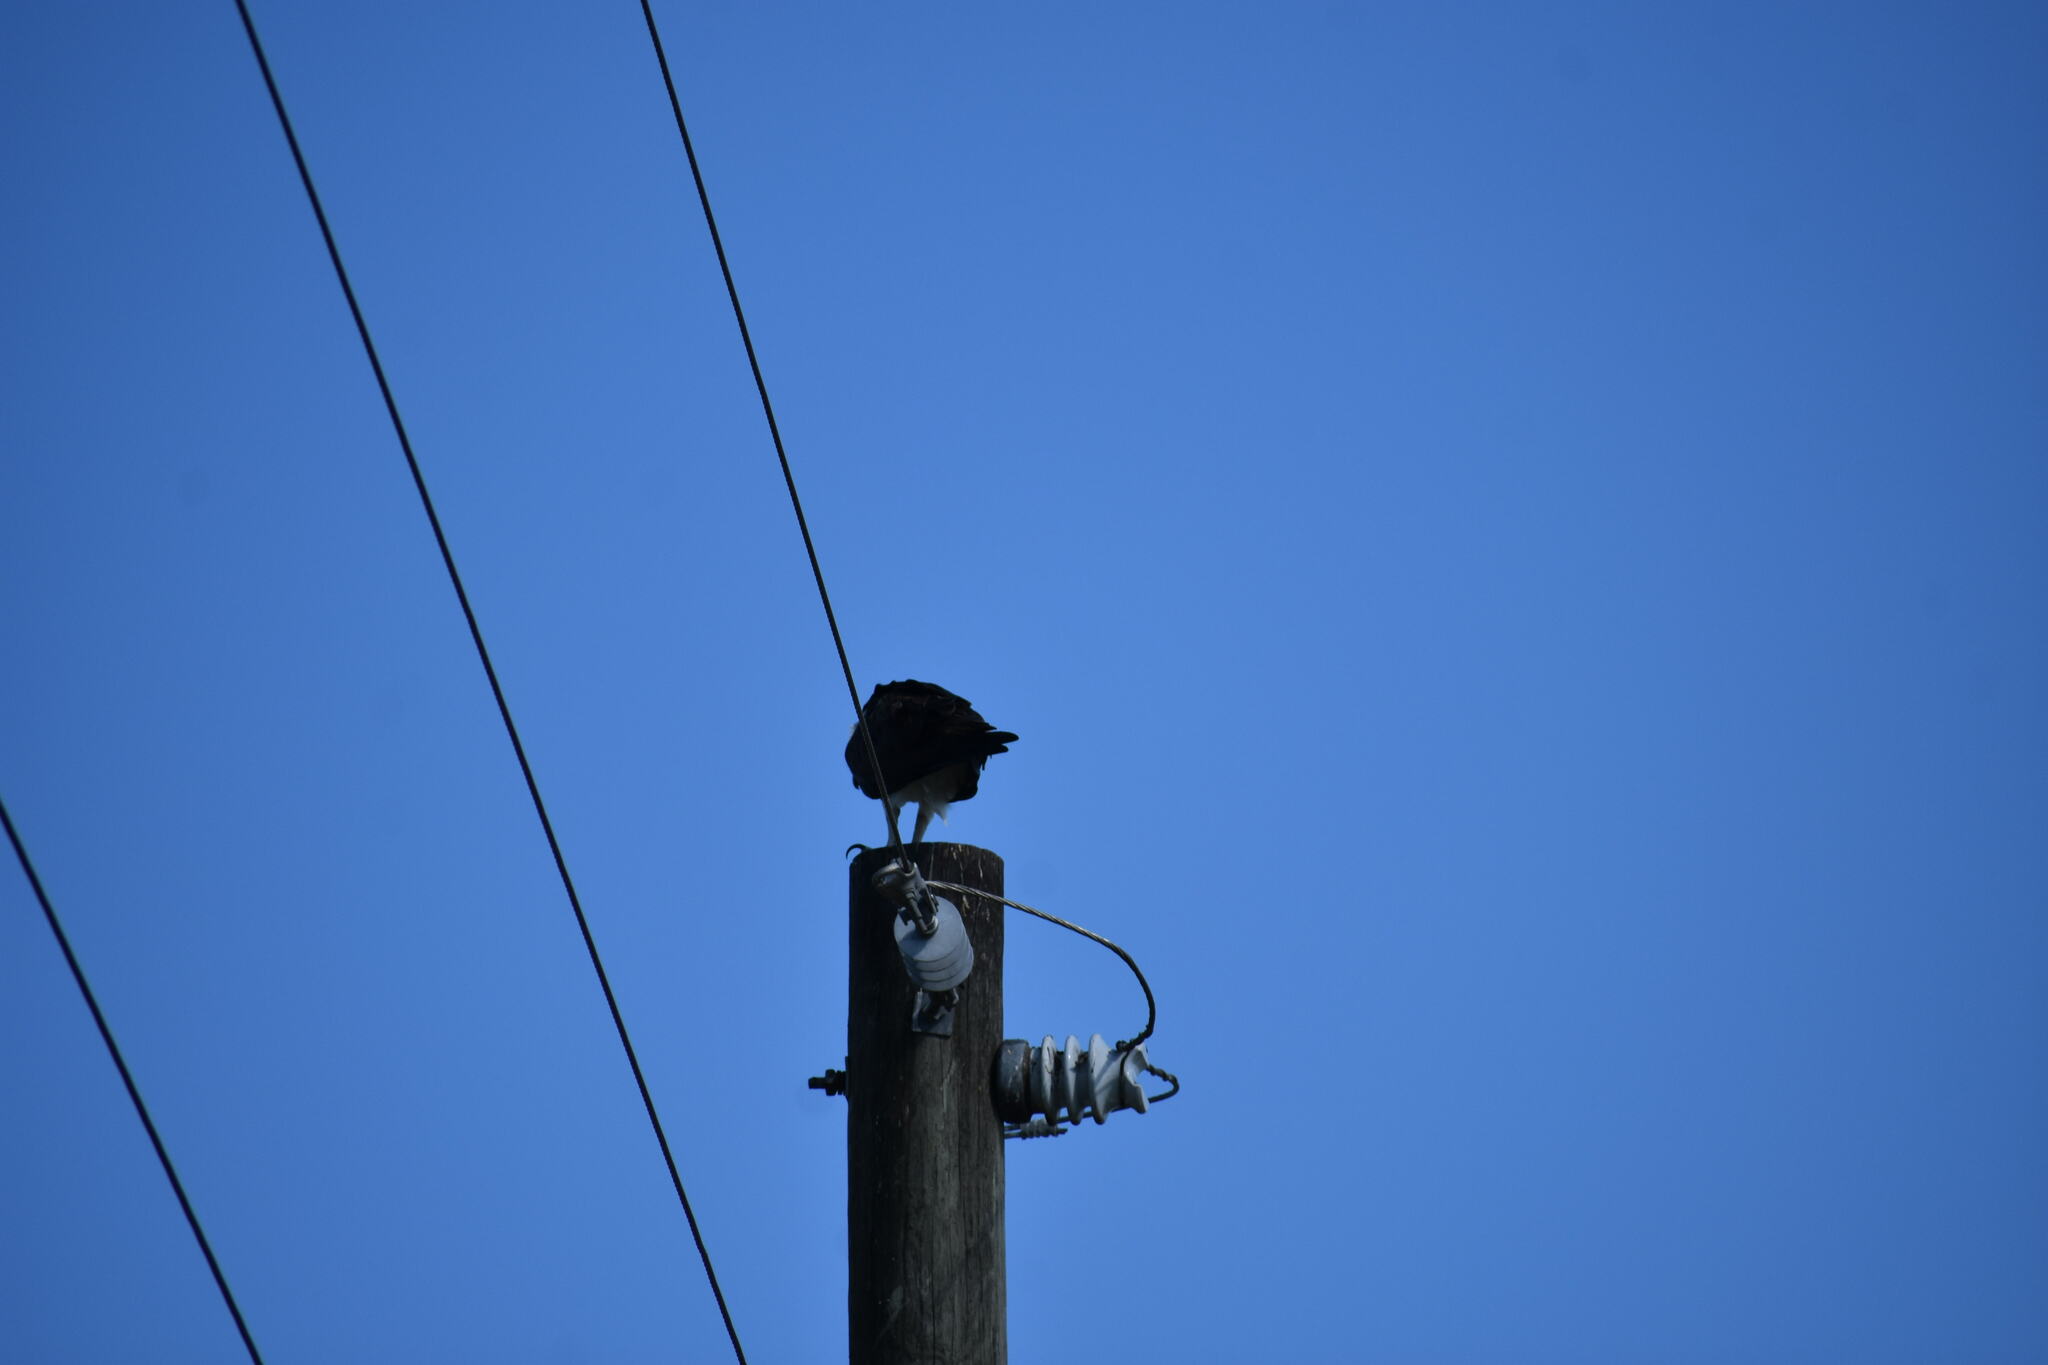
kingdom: Animalia
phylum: Chordata
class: Aves
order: Accipitriformes
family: Pandionidae
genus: Pandion
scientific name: Pandion haliaetus
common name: Osprey
